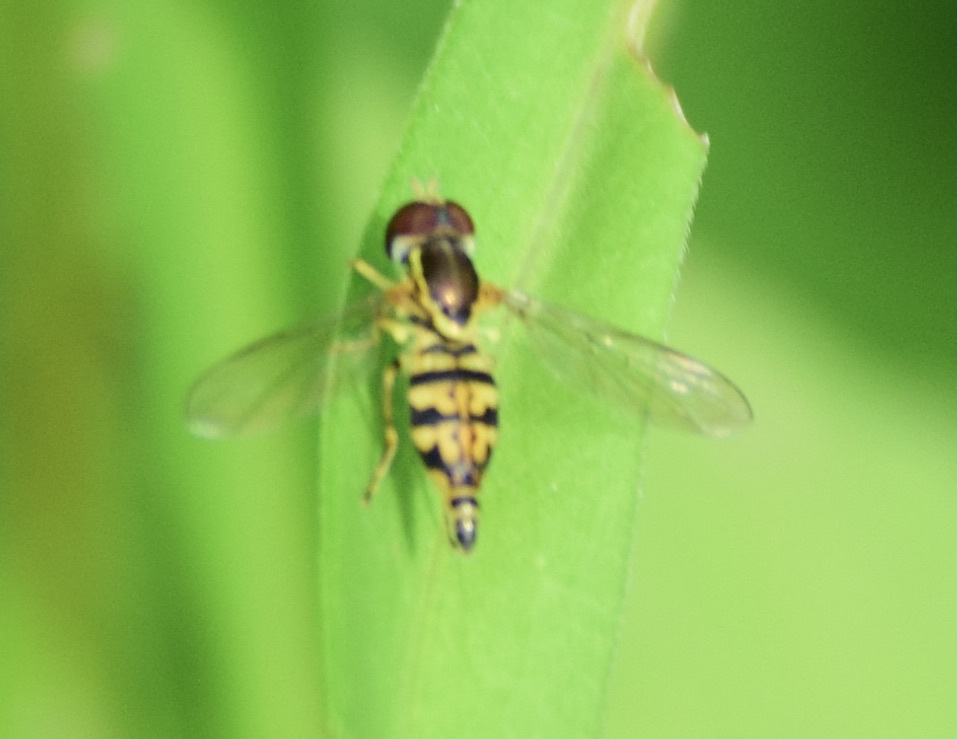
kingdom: Animalia
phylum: Arthropoda
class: Insecta
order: Diptera
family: Syrphidae
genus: Toxomerus
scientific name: Toxomerus geminatus
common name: Eastern calligrapher
